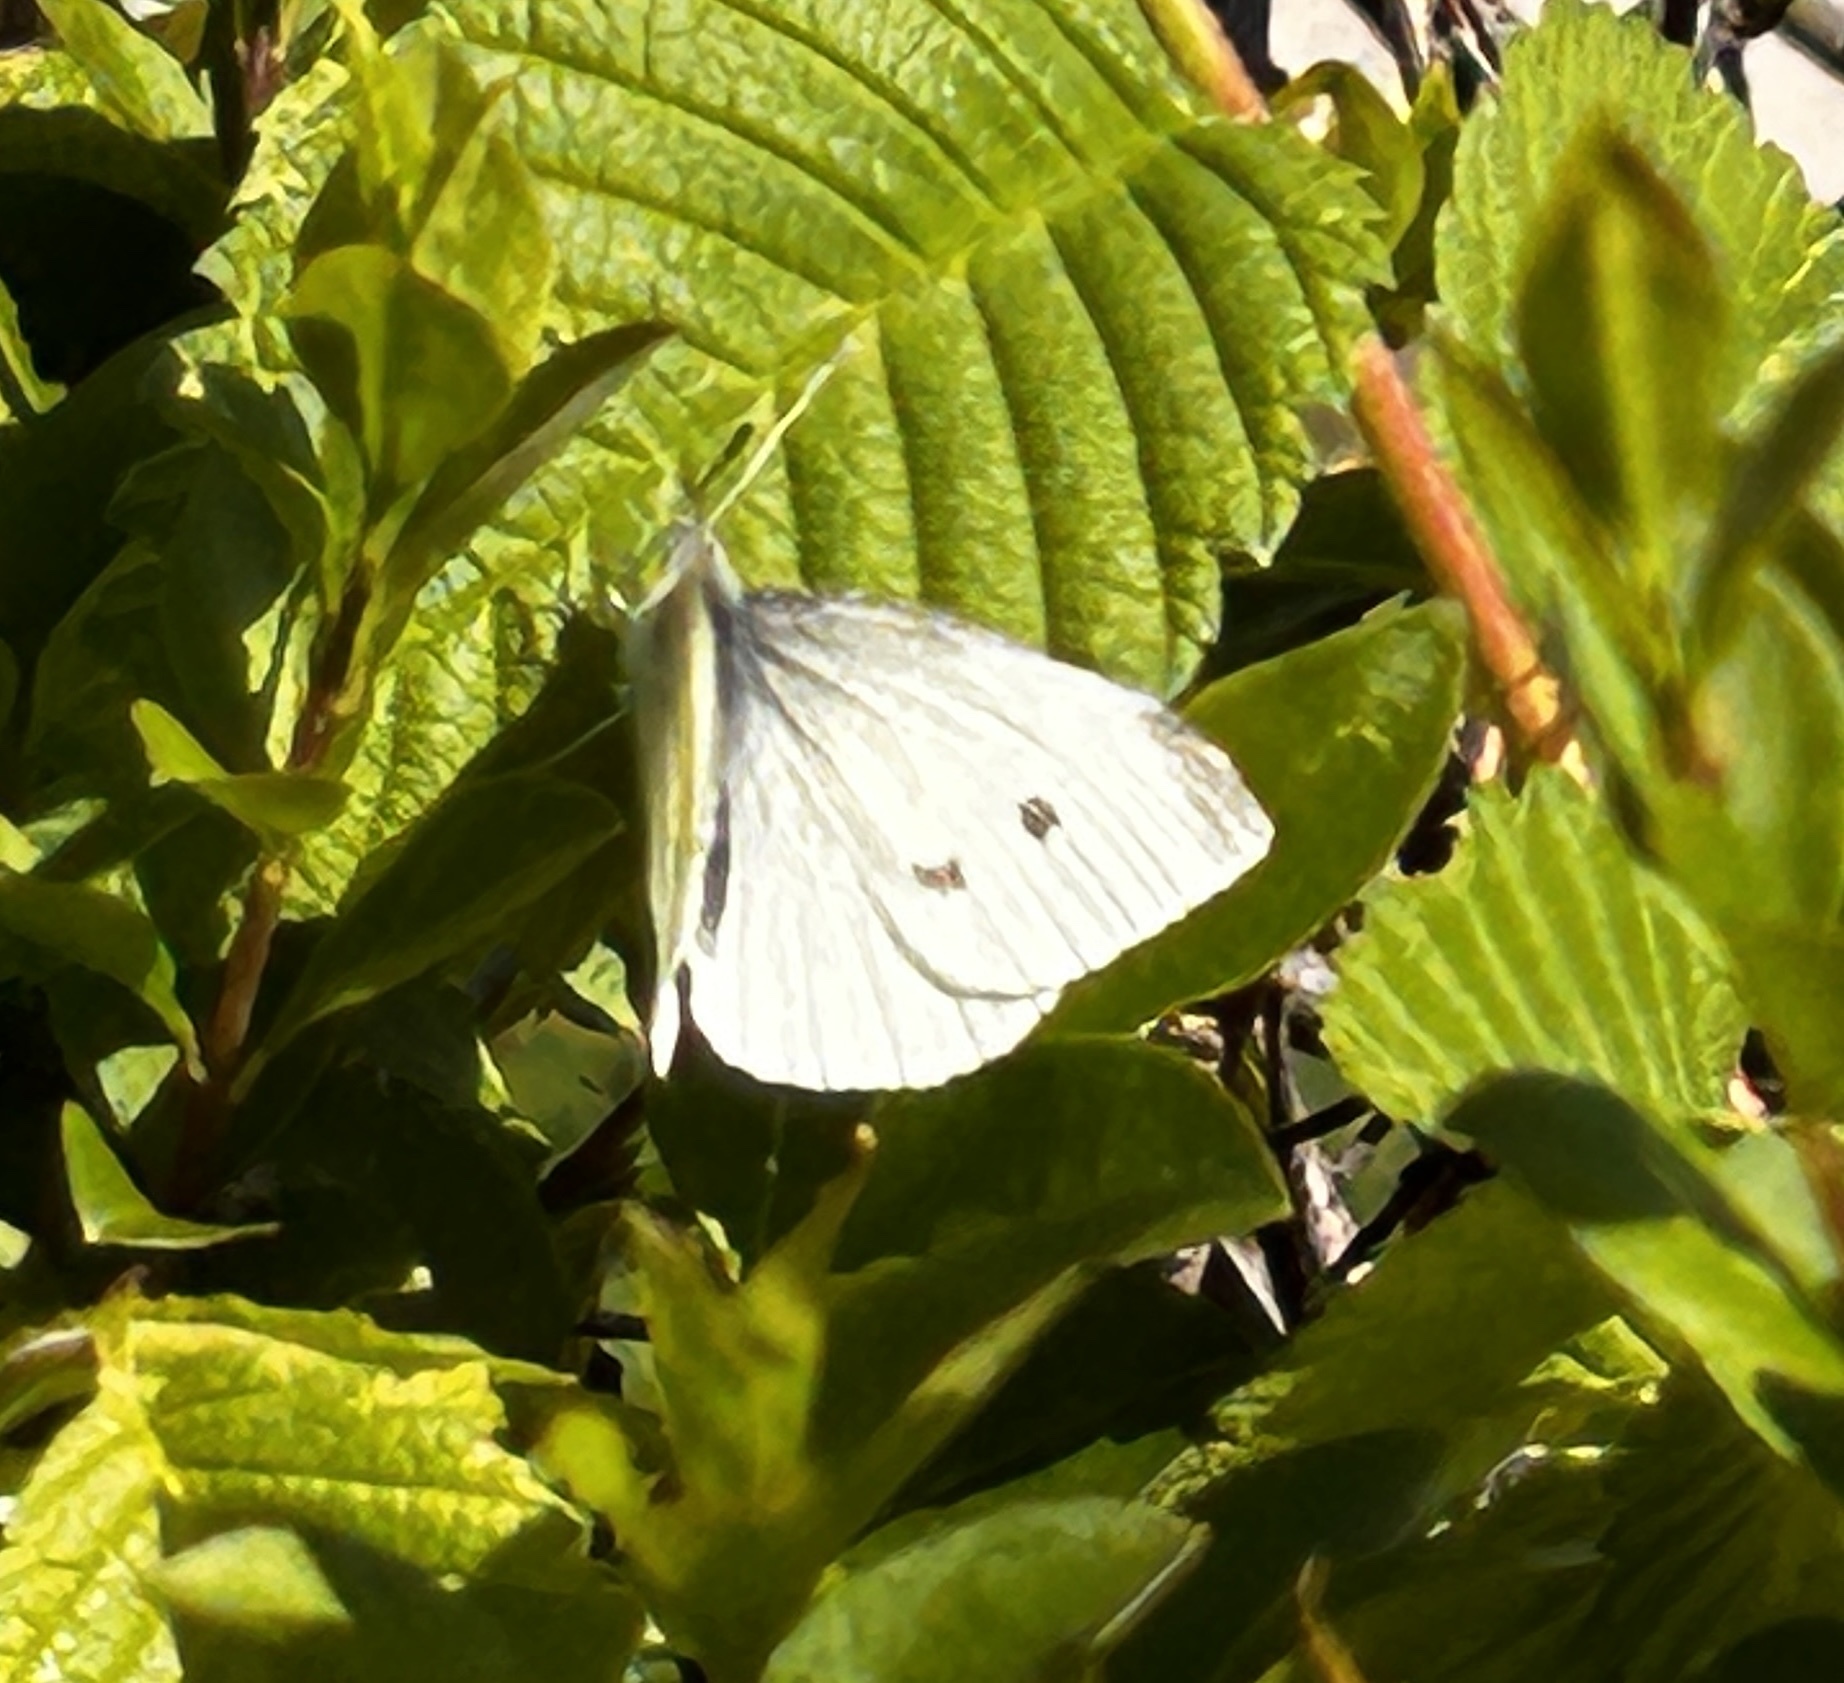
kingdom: Animalia
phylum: Arthropoda
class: Insecta
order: Lepidoptera
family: Pieridae
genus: Pieris
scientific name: Pieris rapae
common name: Small white
